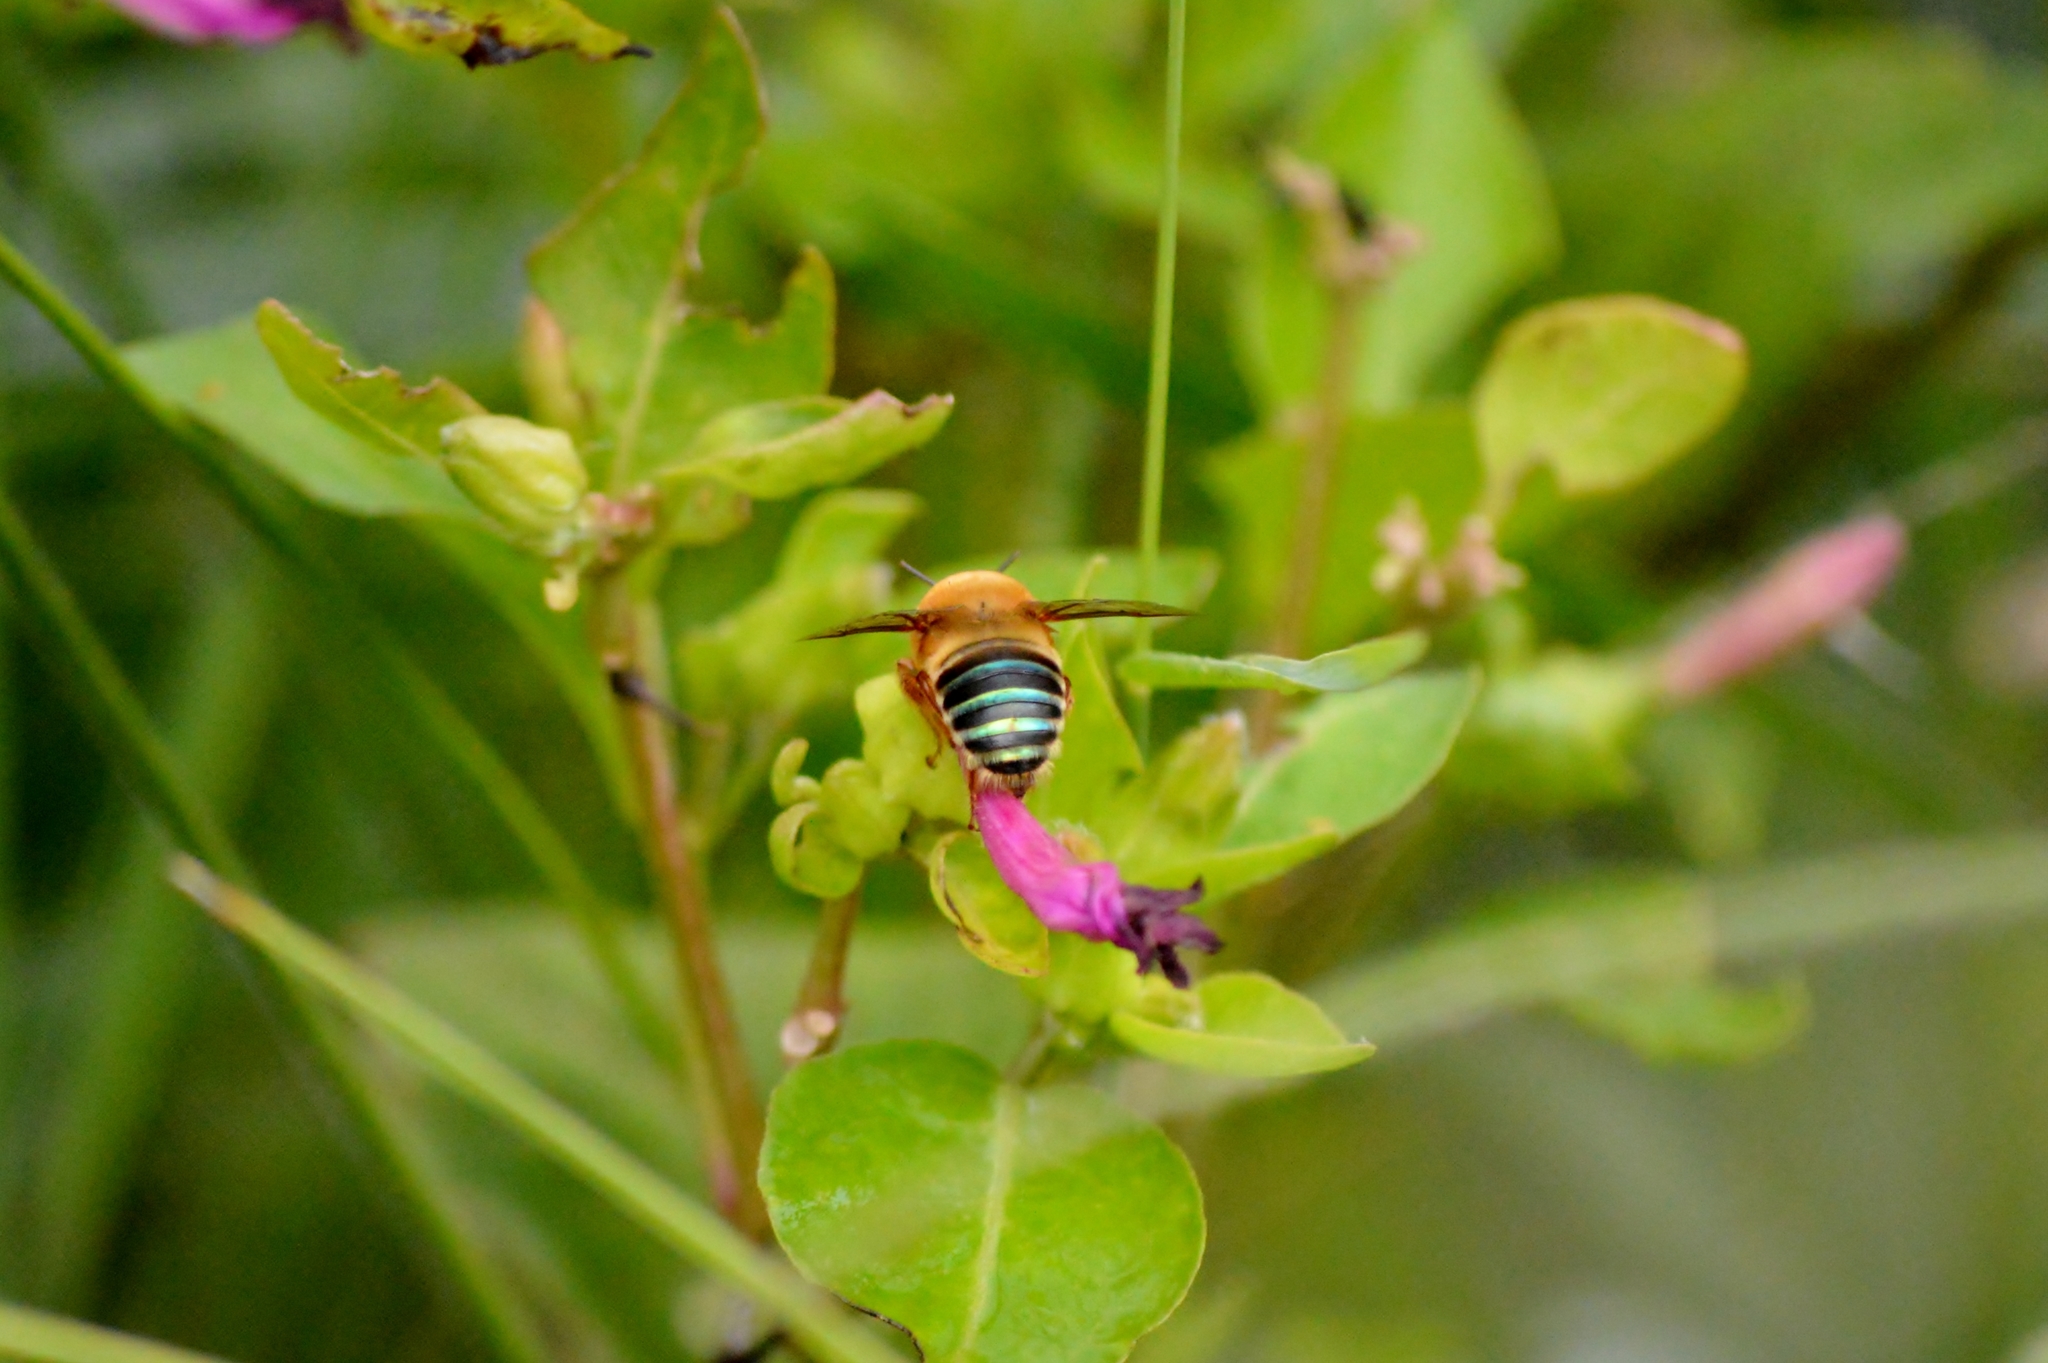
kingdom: Animalia
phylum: Arthropoda
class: Insecta
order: Hymenoptera
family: Andrenidae
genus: Oxaea
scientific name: Oxaea flavescens
